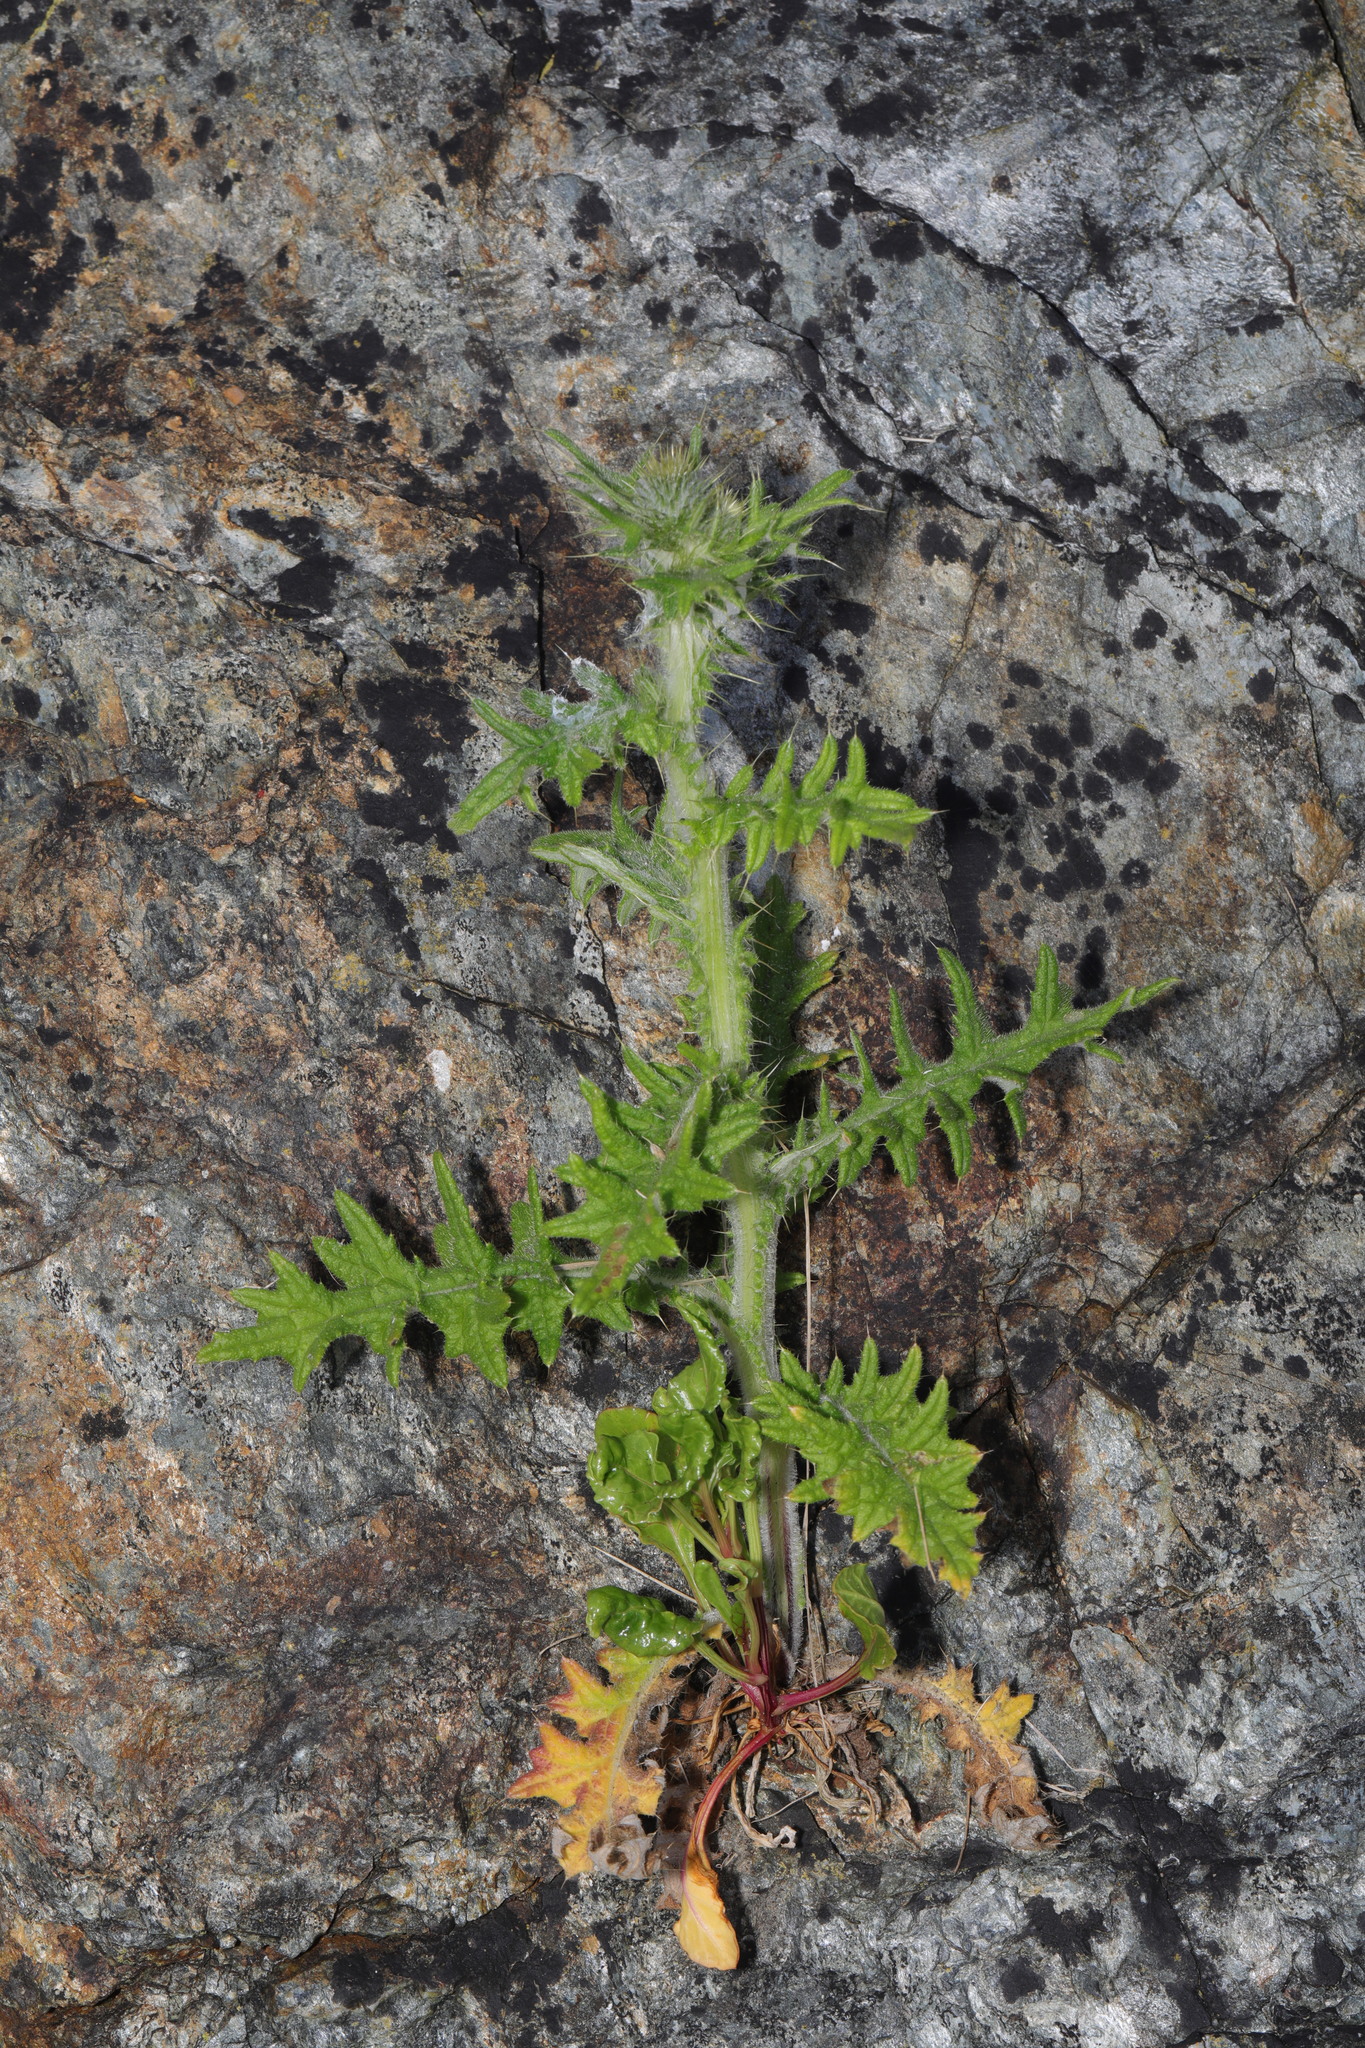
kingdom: Plantae
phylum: Tracheophyta
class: Magnoliopsida
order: Asterales
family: Asteraceae
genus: Cirsium
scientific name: Cirsium vulgare
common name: Bull thistle
